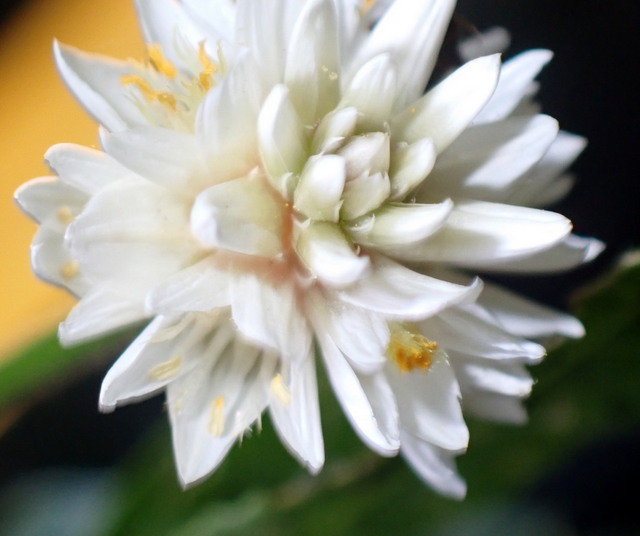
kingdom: Plantae
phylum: Tracheophyta
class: Magnoliopsida
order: Caryophyllales
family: Amaranthaceae
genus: Alternanthera
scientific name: Alternanthera philoxeroides
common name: Alligatorweed
